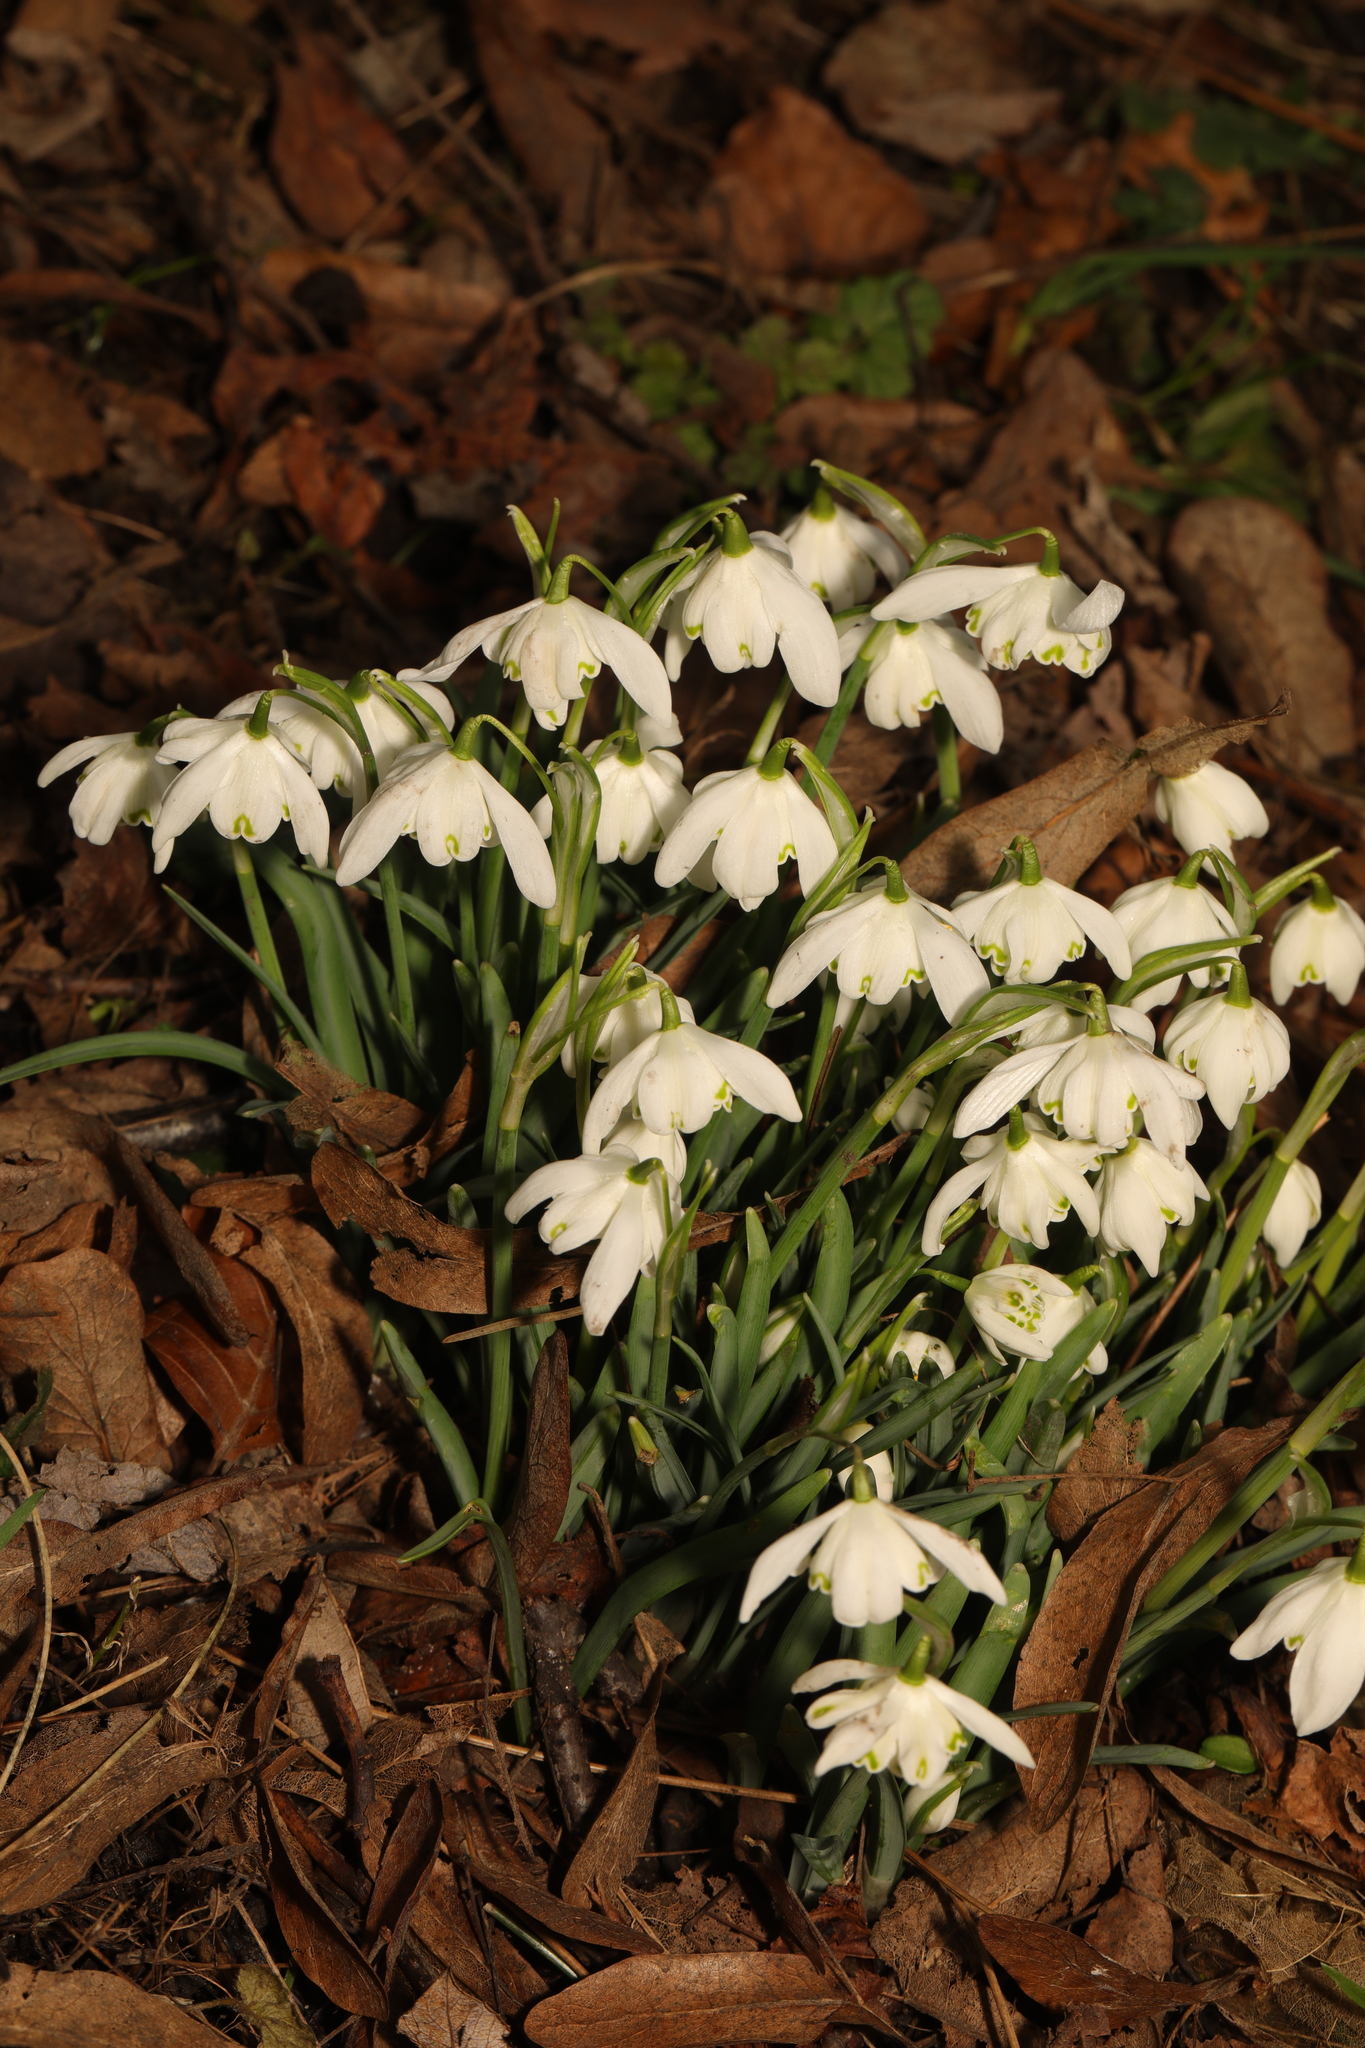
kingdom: Plantae
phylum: Tracheophyta
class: Liliopsida
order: Asparagales
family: Amaryllidaceae
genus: Galanthus
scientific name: Galanthus nivalis
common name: Snowdrop
